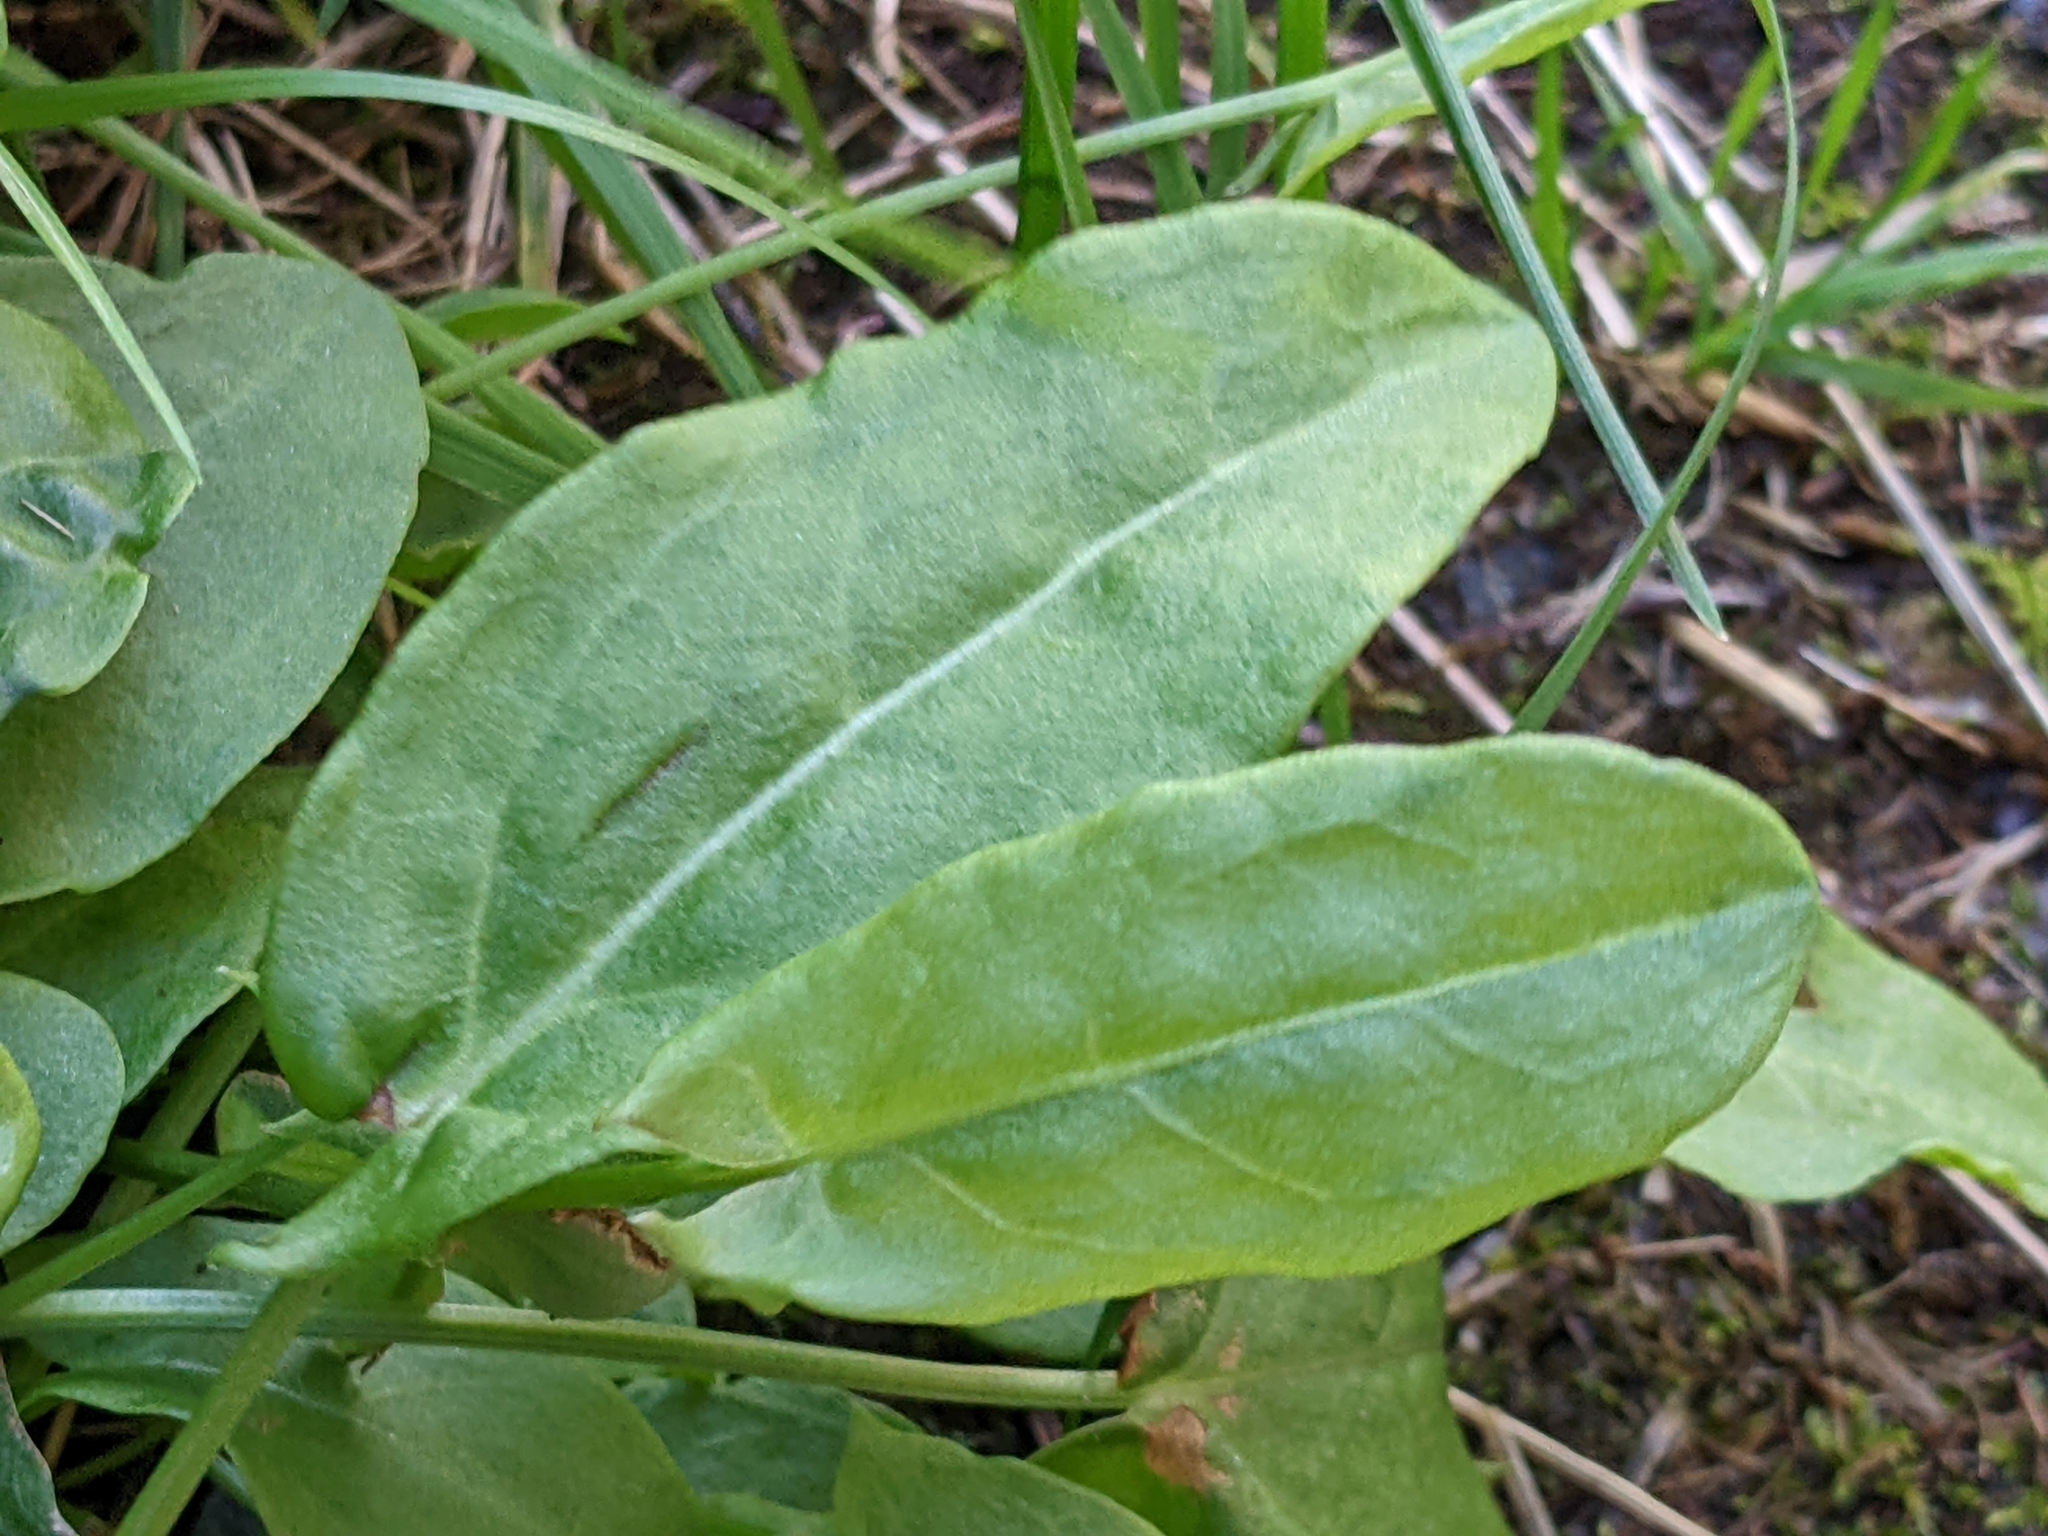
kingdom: Plantae
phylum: Tracheophyta
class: Magnoliopsida
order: Caryophyllales
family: Polygonaceae
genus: Rumex
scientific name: Rumex acetosella
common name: Common sheep sorrel
